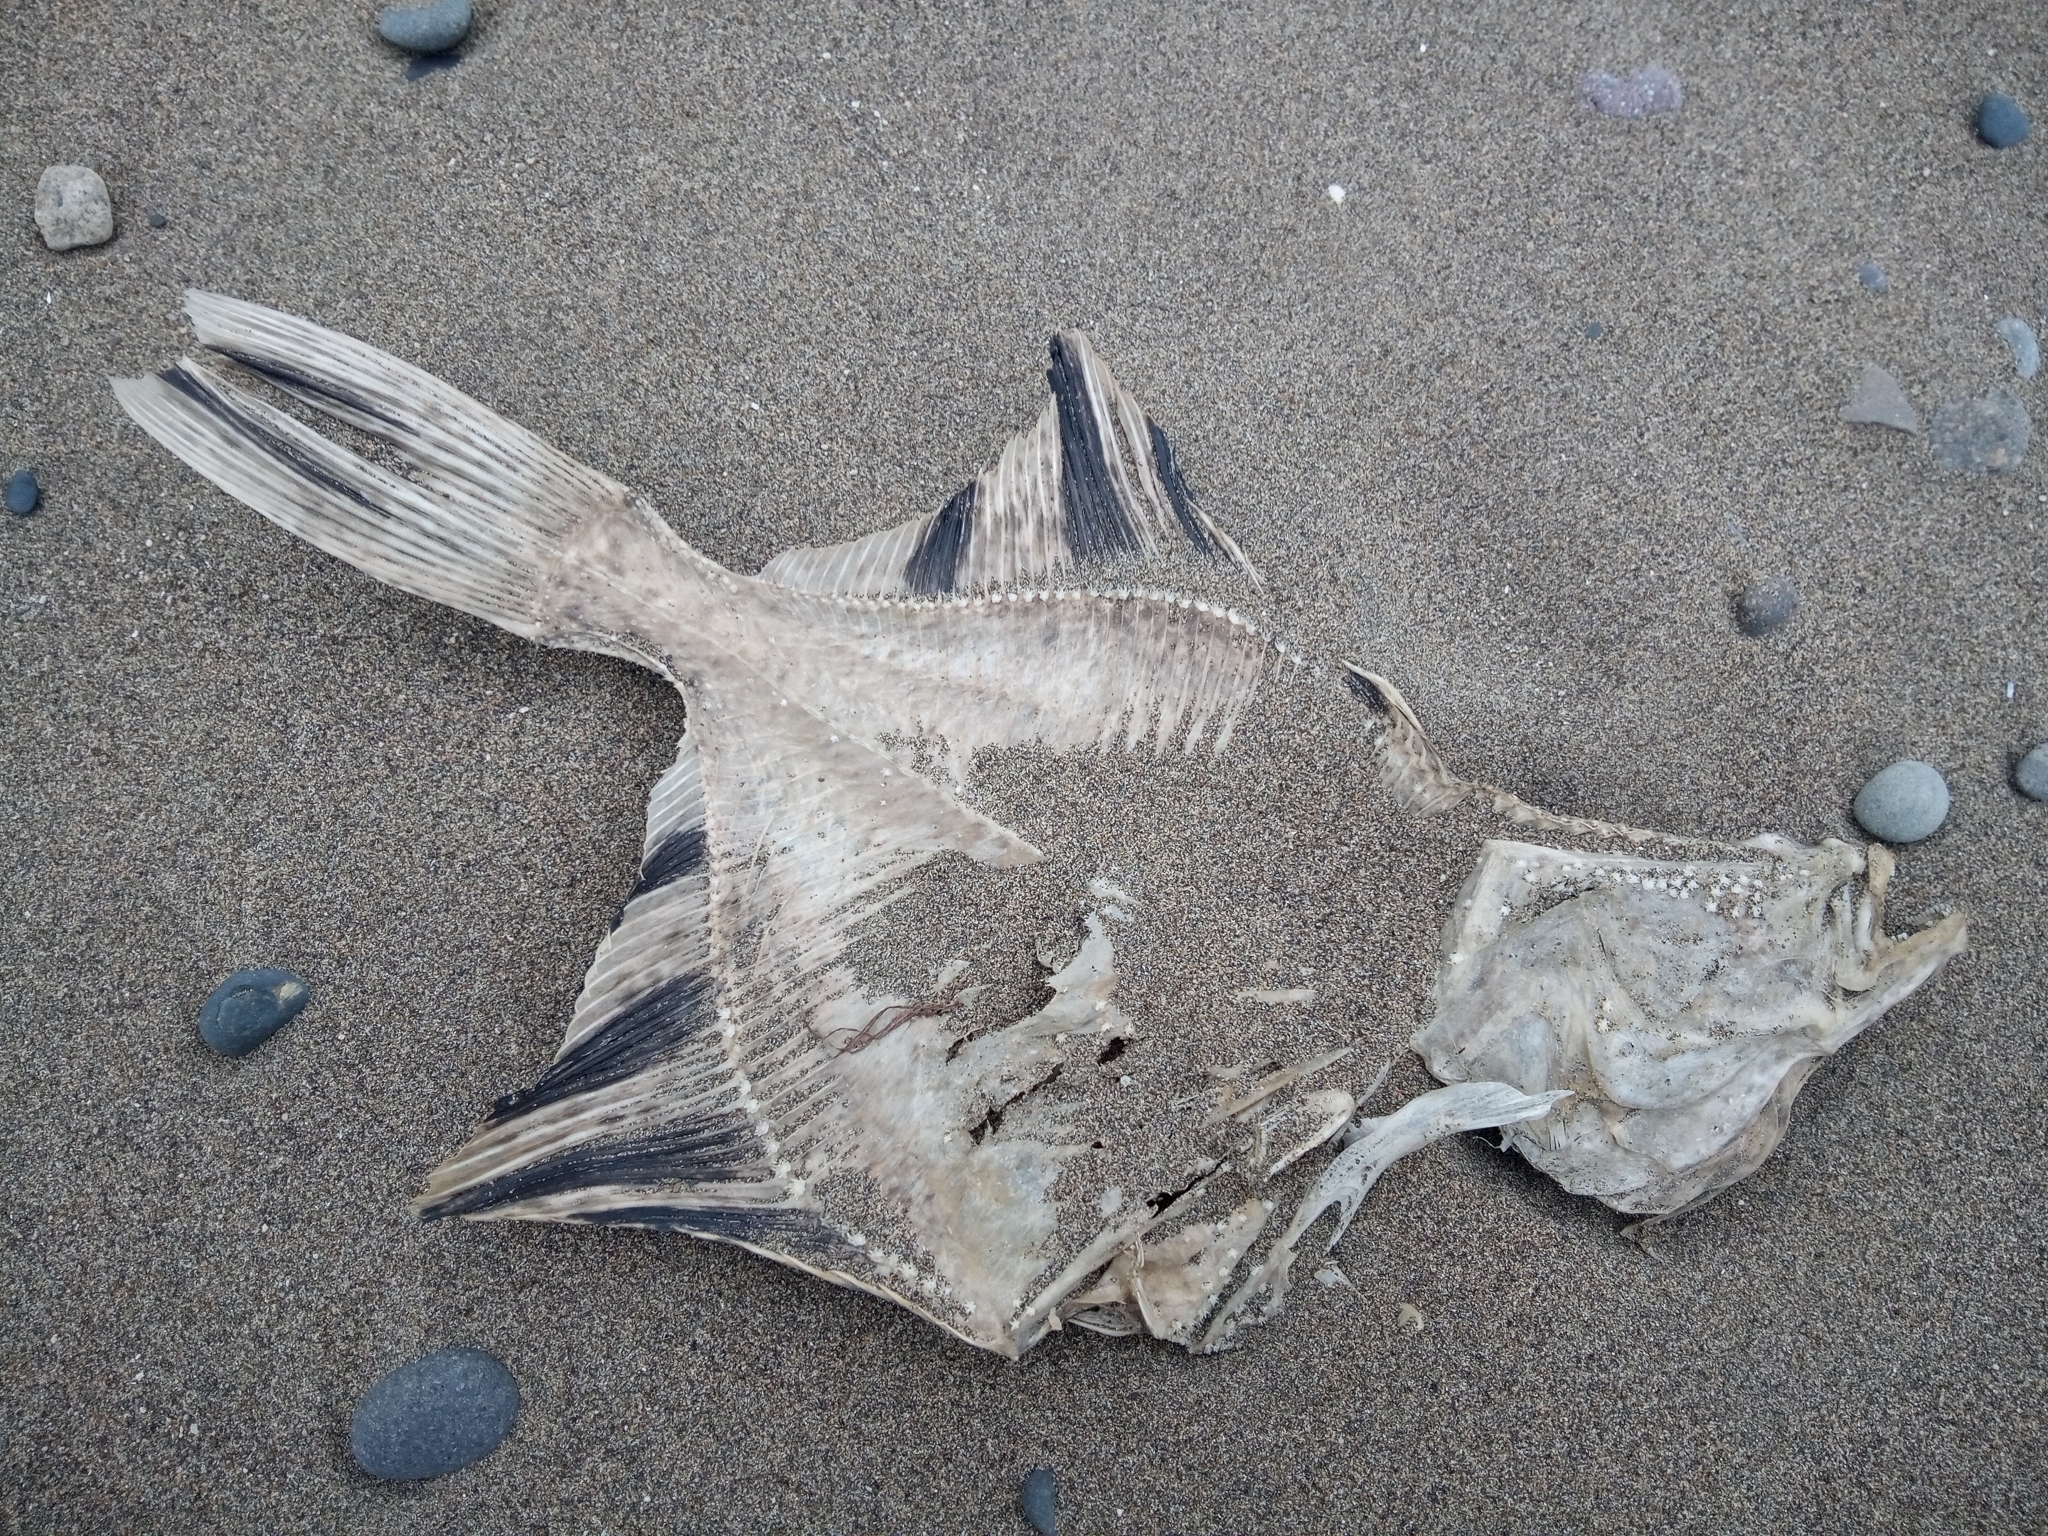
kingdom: Animalia
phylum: Chordata
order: Pleuronectiformes
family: Pleuronectidae
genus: Platichthys
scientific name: Platichthys stellatus
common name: Starry flounder
